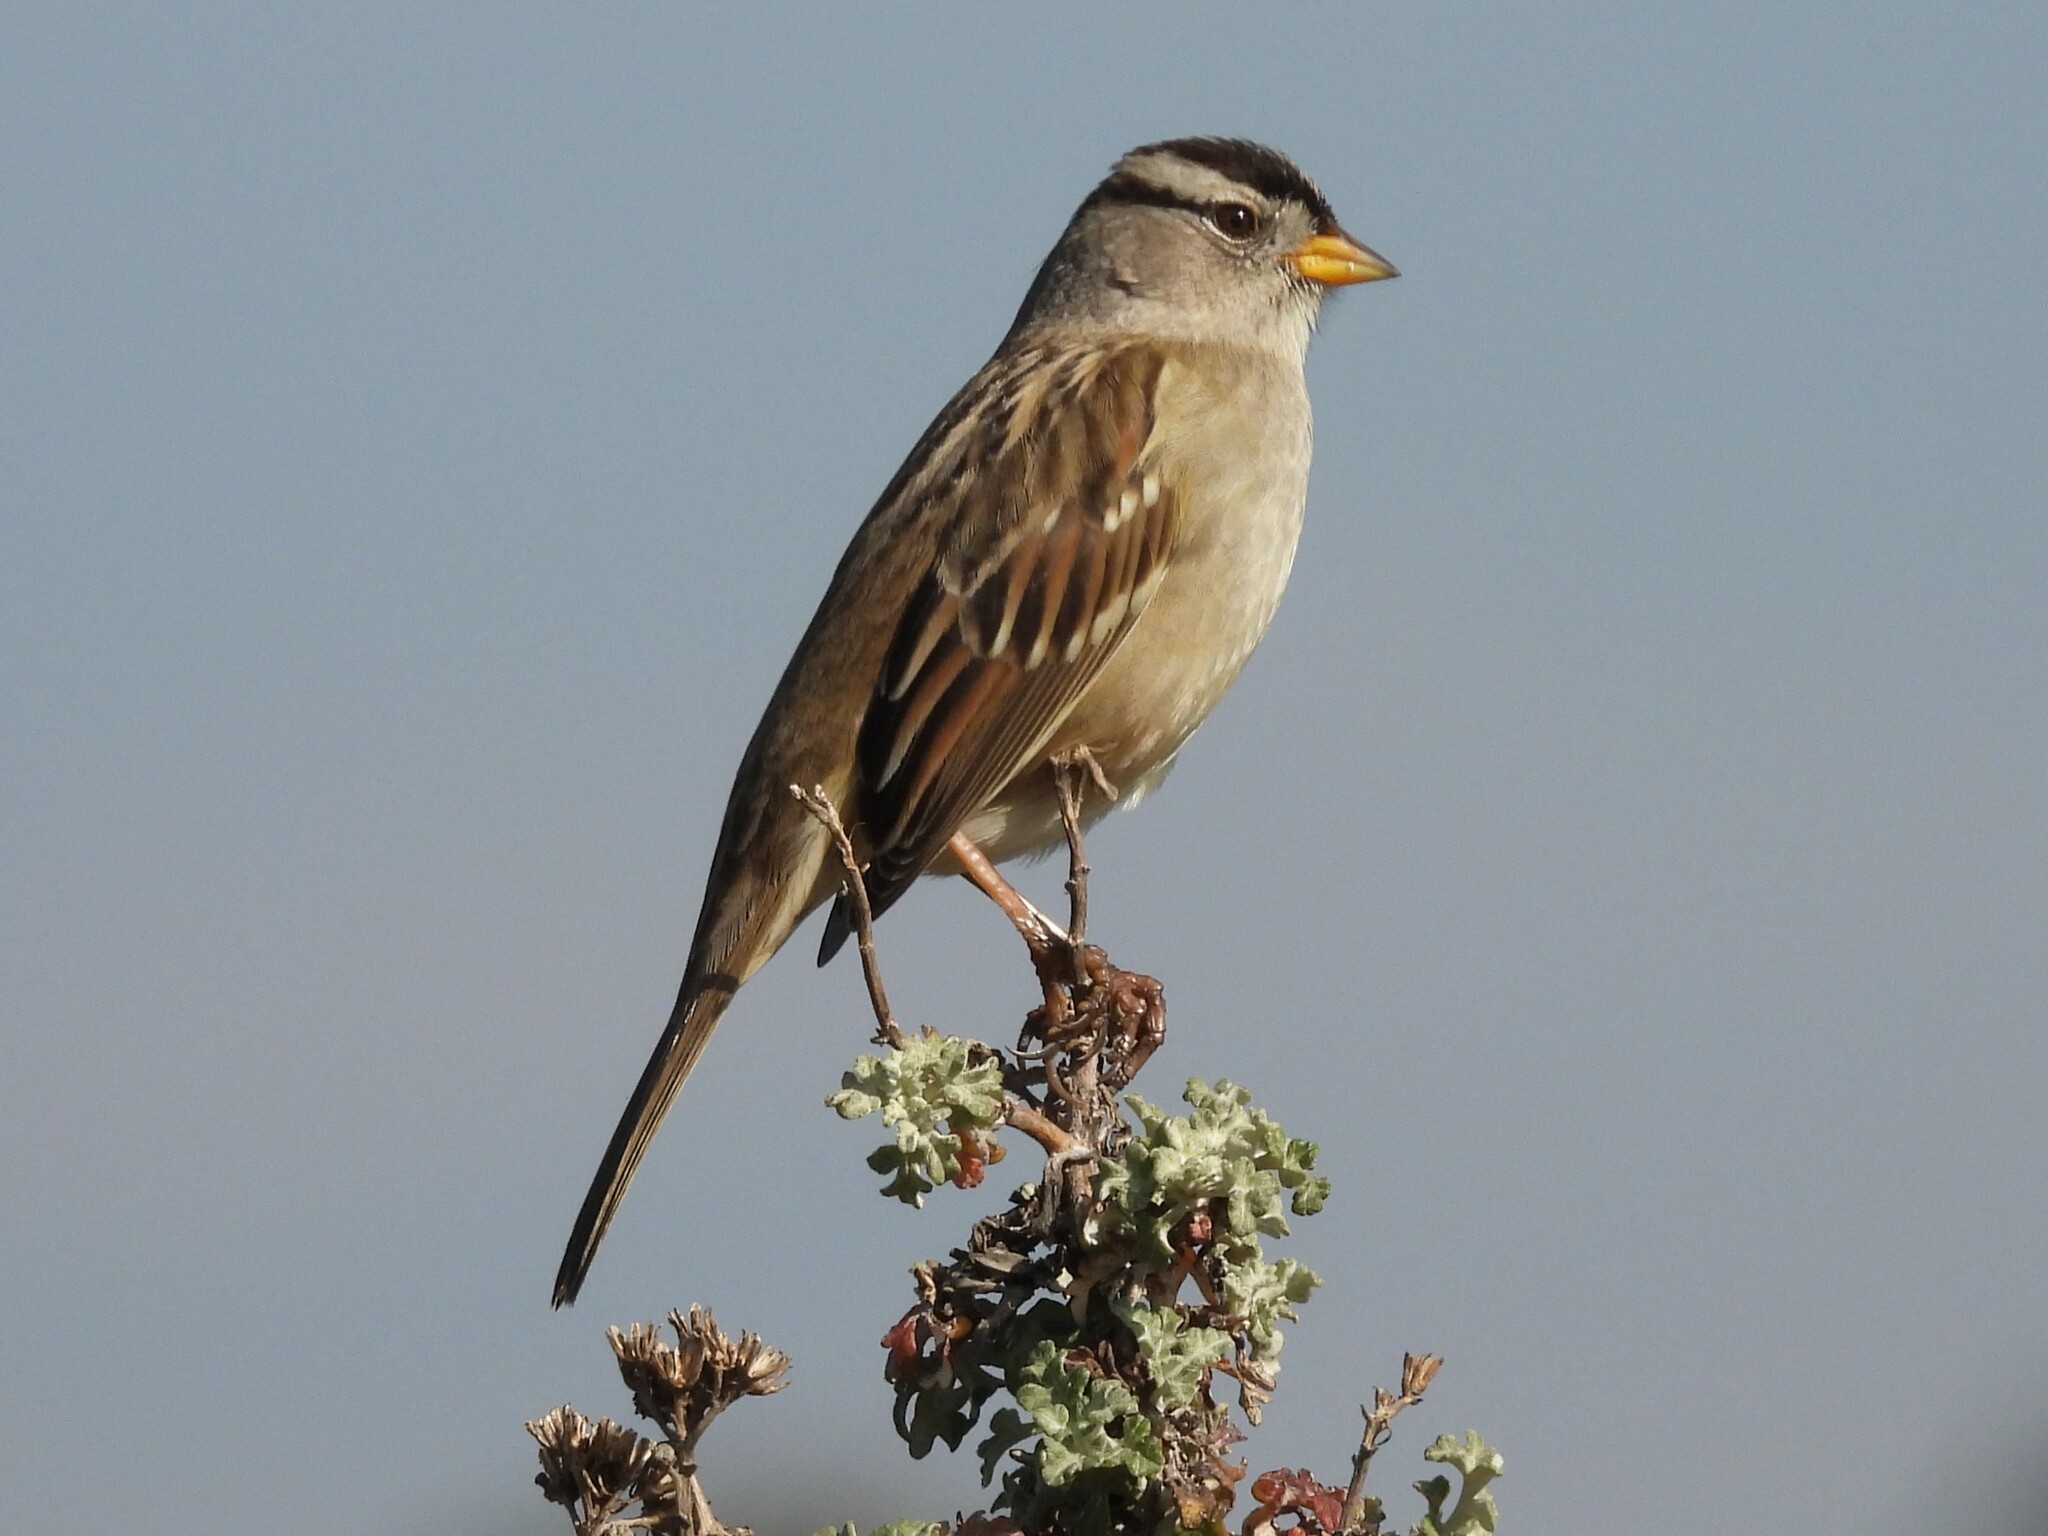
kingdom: Animalia
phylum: Chordata
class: Aves
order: Passeriformes
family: Passerellidae
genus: Zonotrichia
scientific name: Zonotrichia leucophrys
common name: White-crowned sparrow
